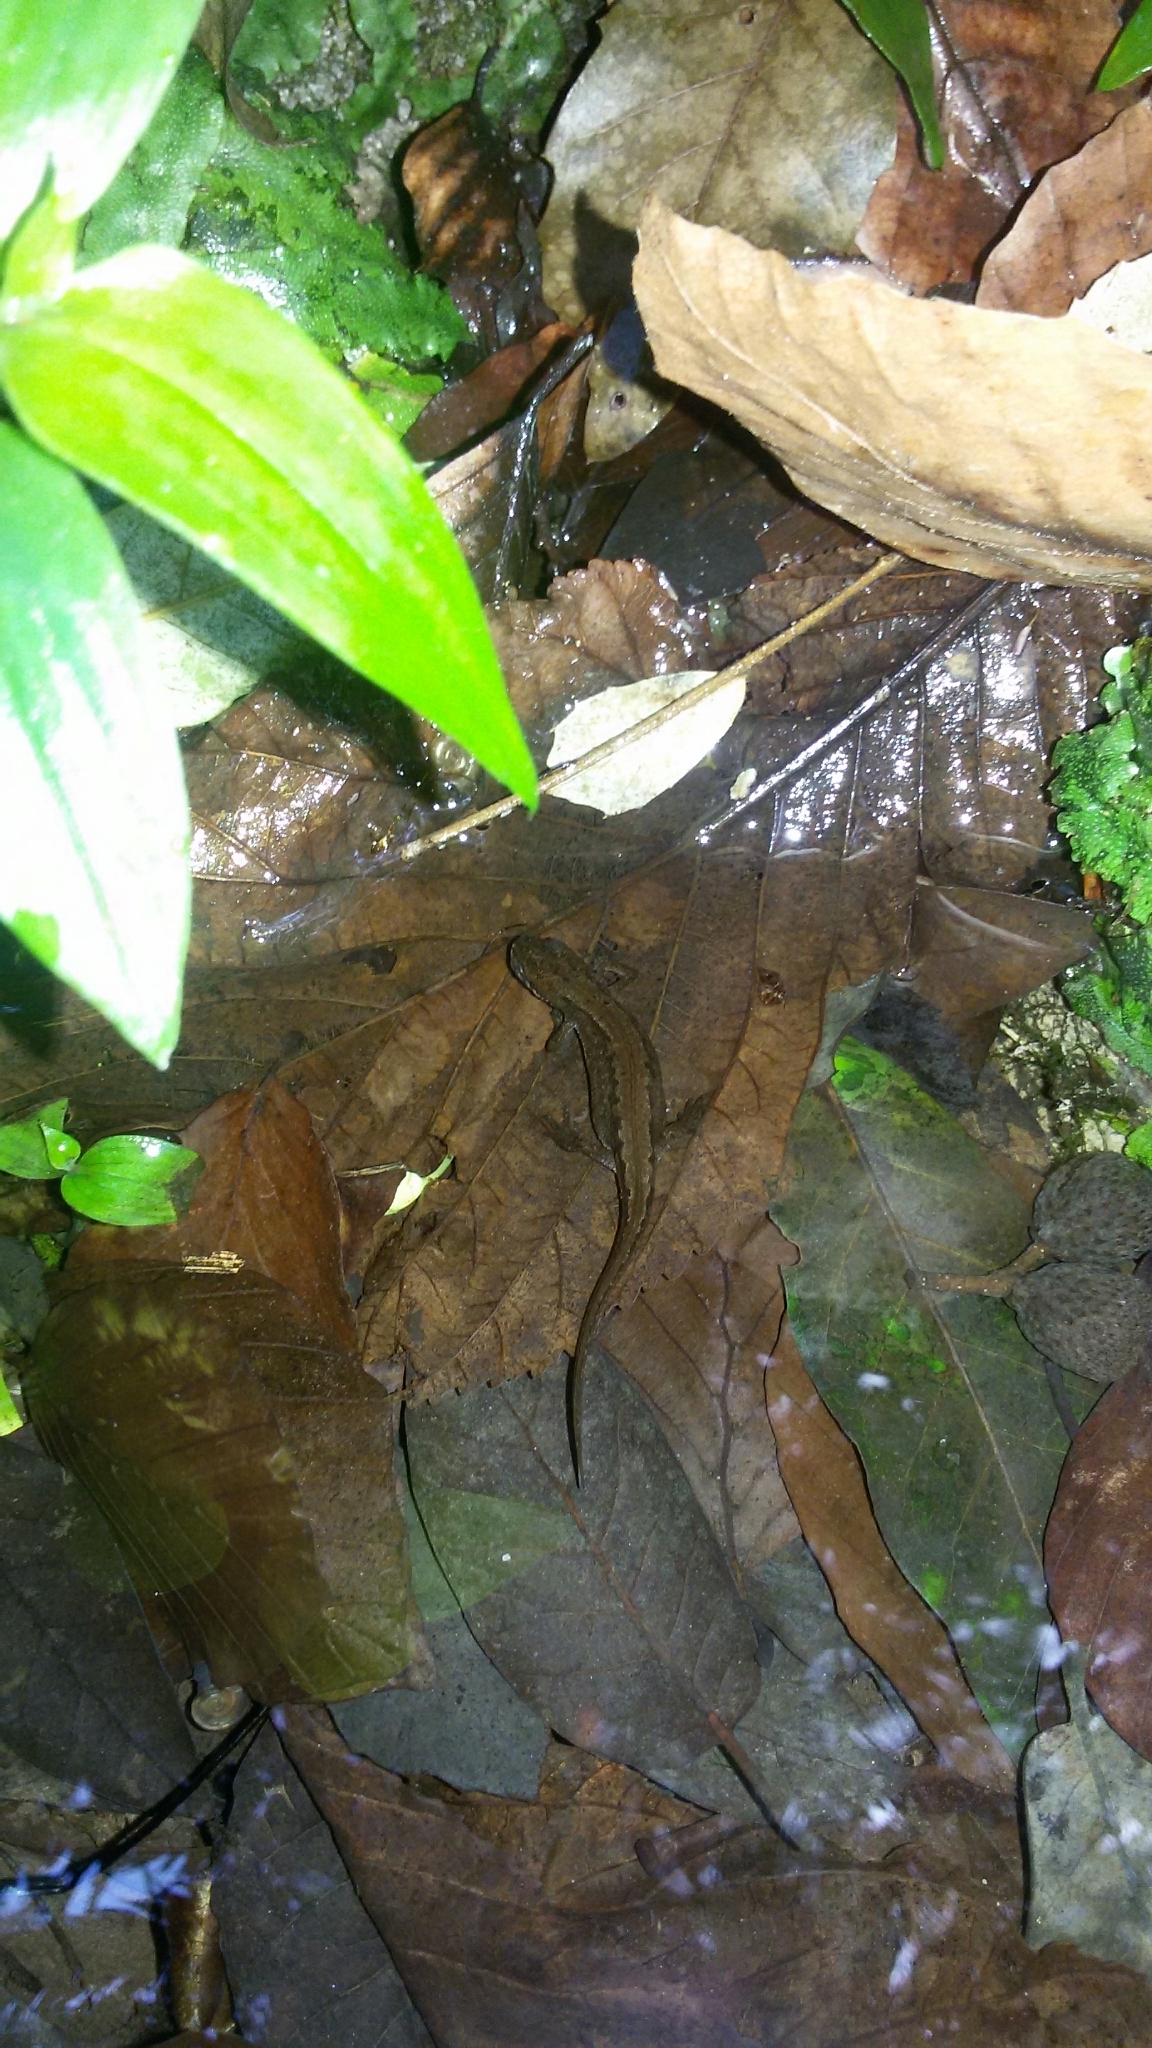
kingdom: Animalia
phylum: Chordata
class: Amphibia
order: Caudata
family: Salamandridae
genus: Lissotriton
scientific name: Lissotriton vulgaris
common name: Smooth newt
